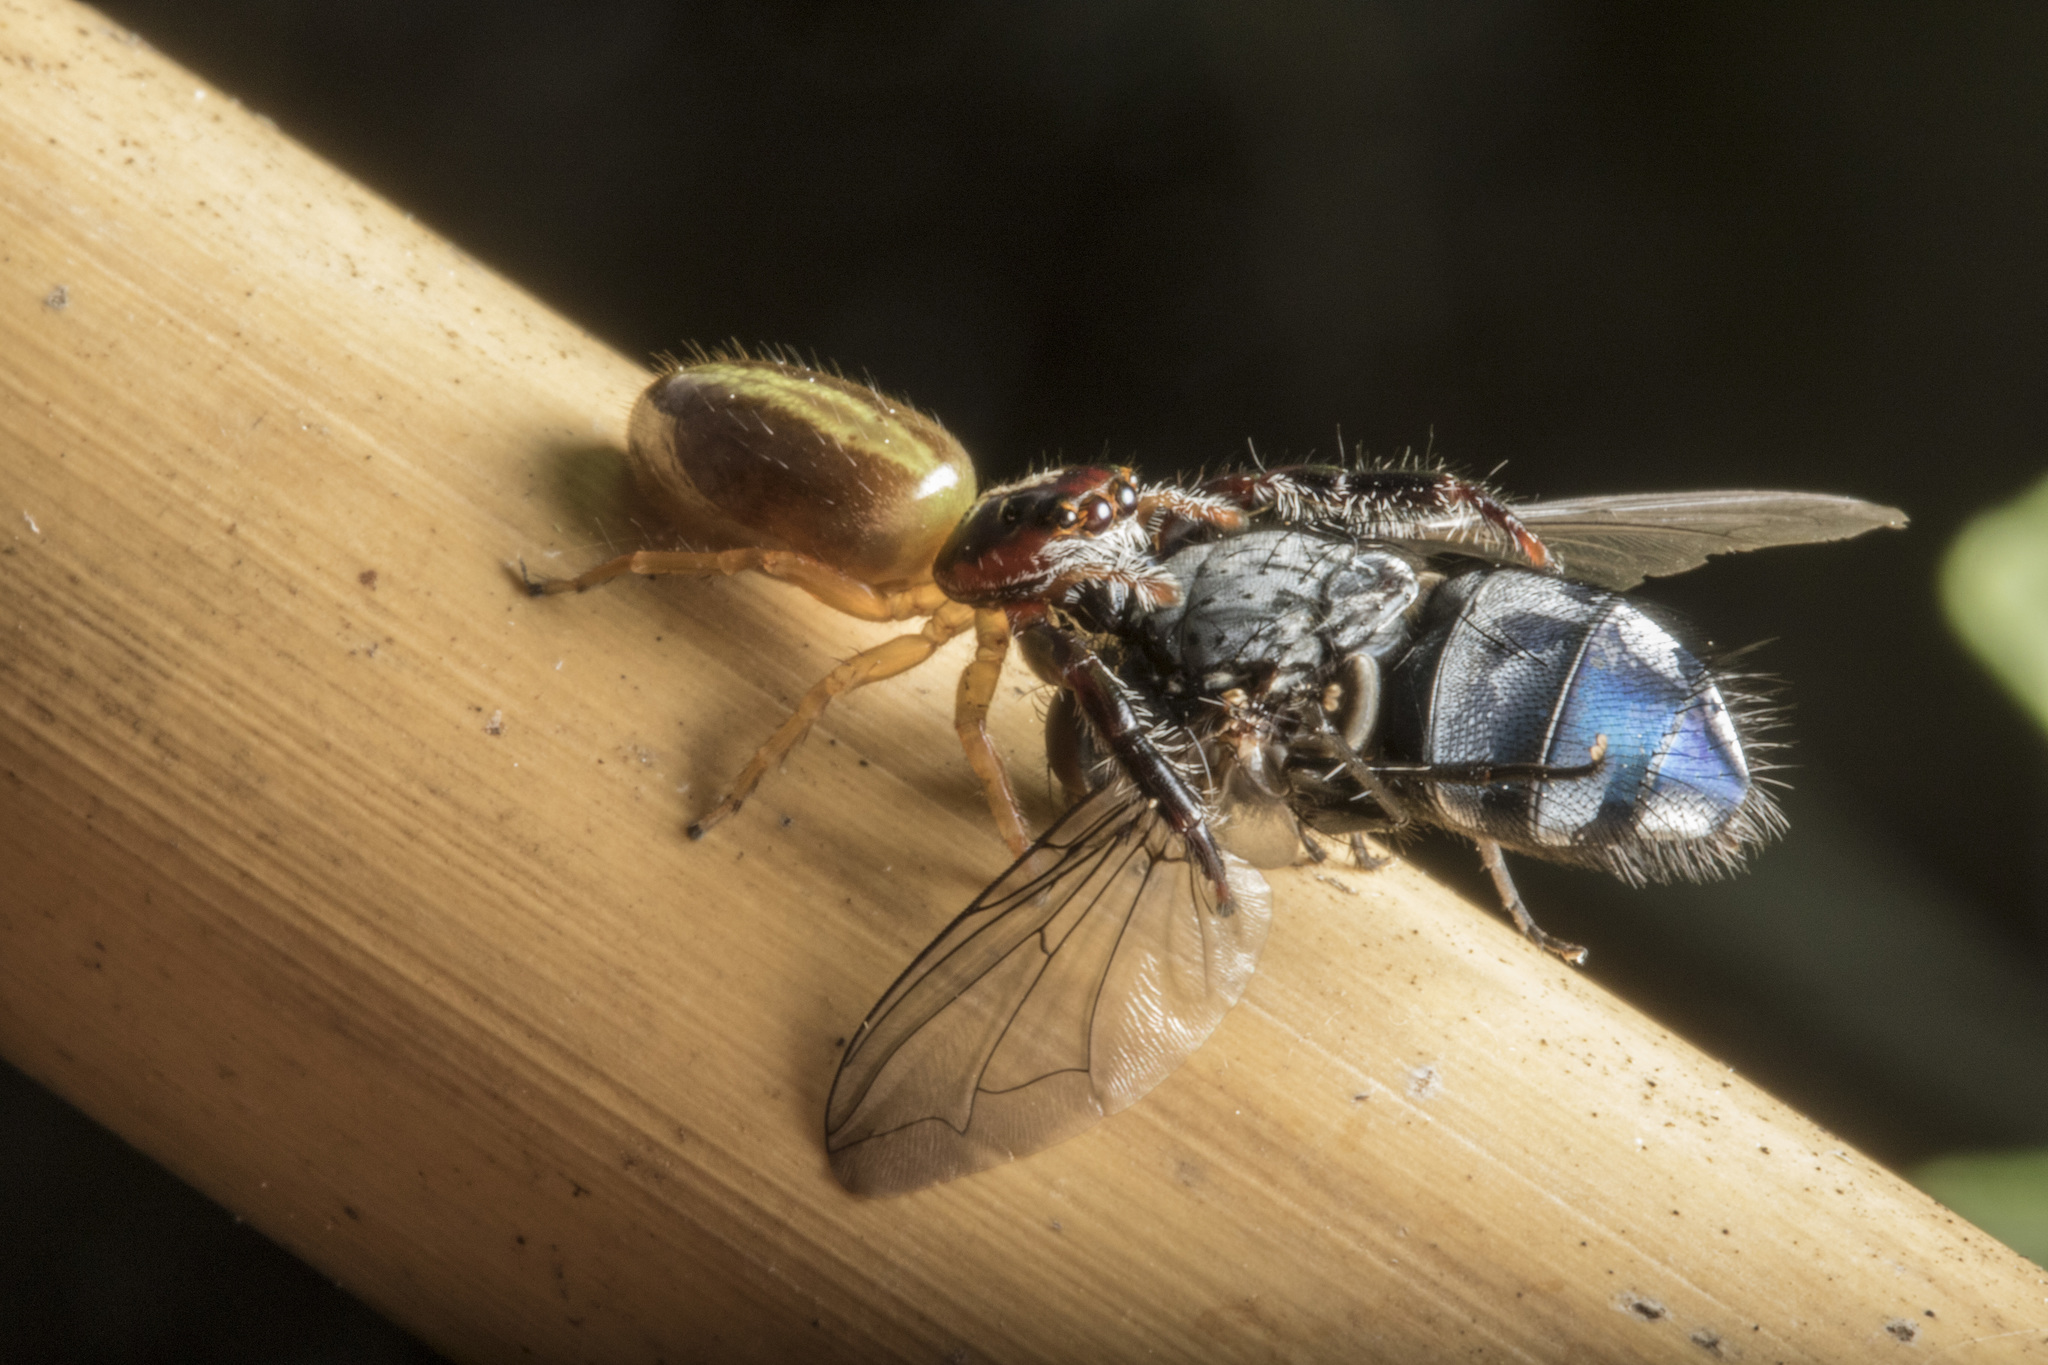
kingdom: Animalia
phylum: Arthropoda
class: Arachnida
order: Araneae
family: Salticidae
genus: Trite
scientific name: Trite planiceps
